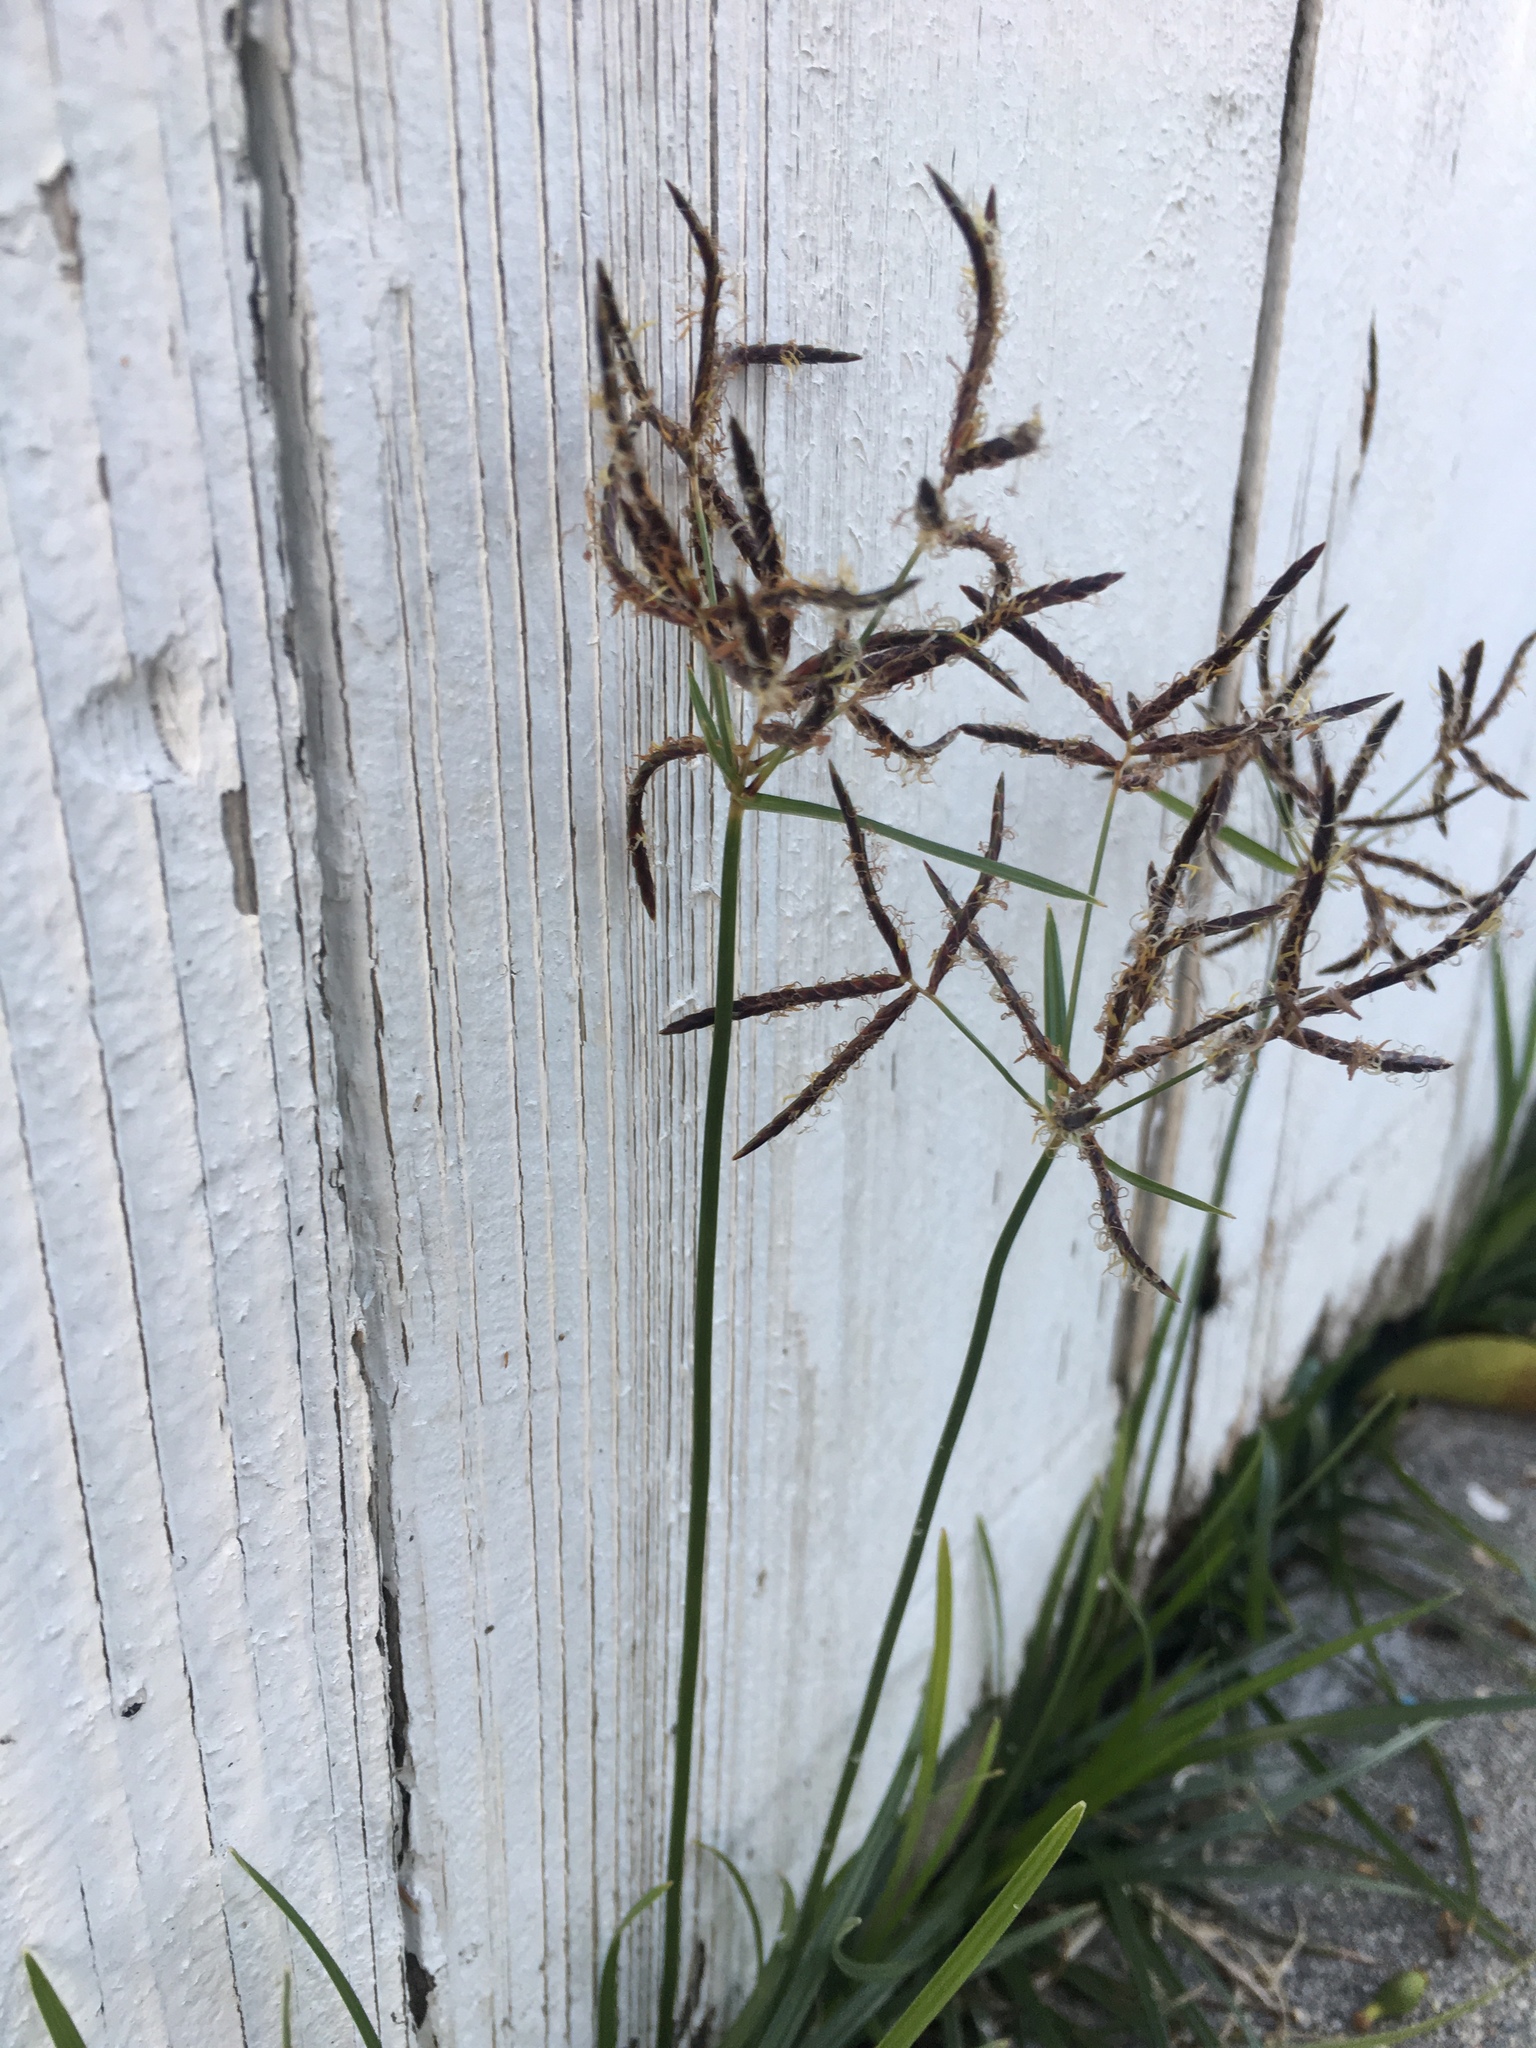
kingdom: Plantae
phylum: Tracheophyta
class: Liliopsida
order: Poales
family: Cyperaceae
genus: Cyperus
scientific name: Cyperus rotundus
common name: Nutgrass
